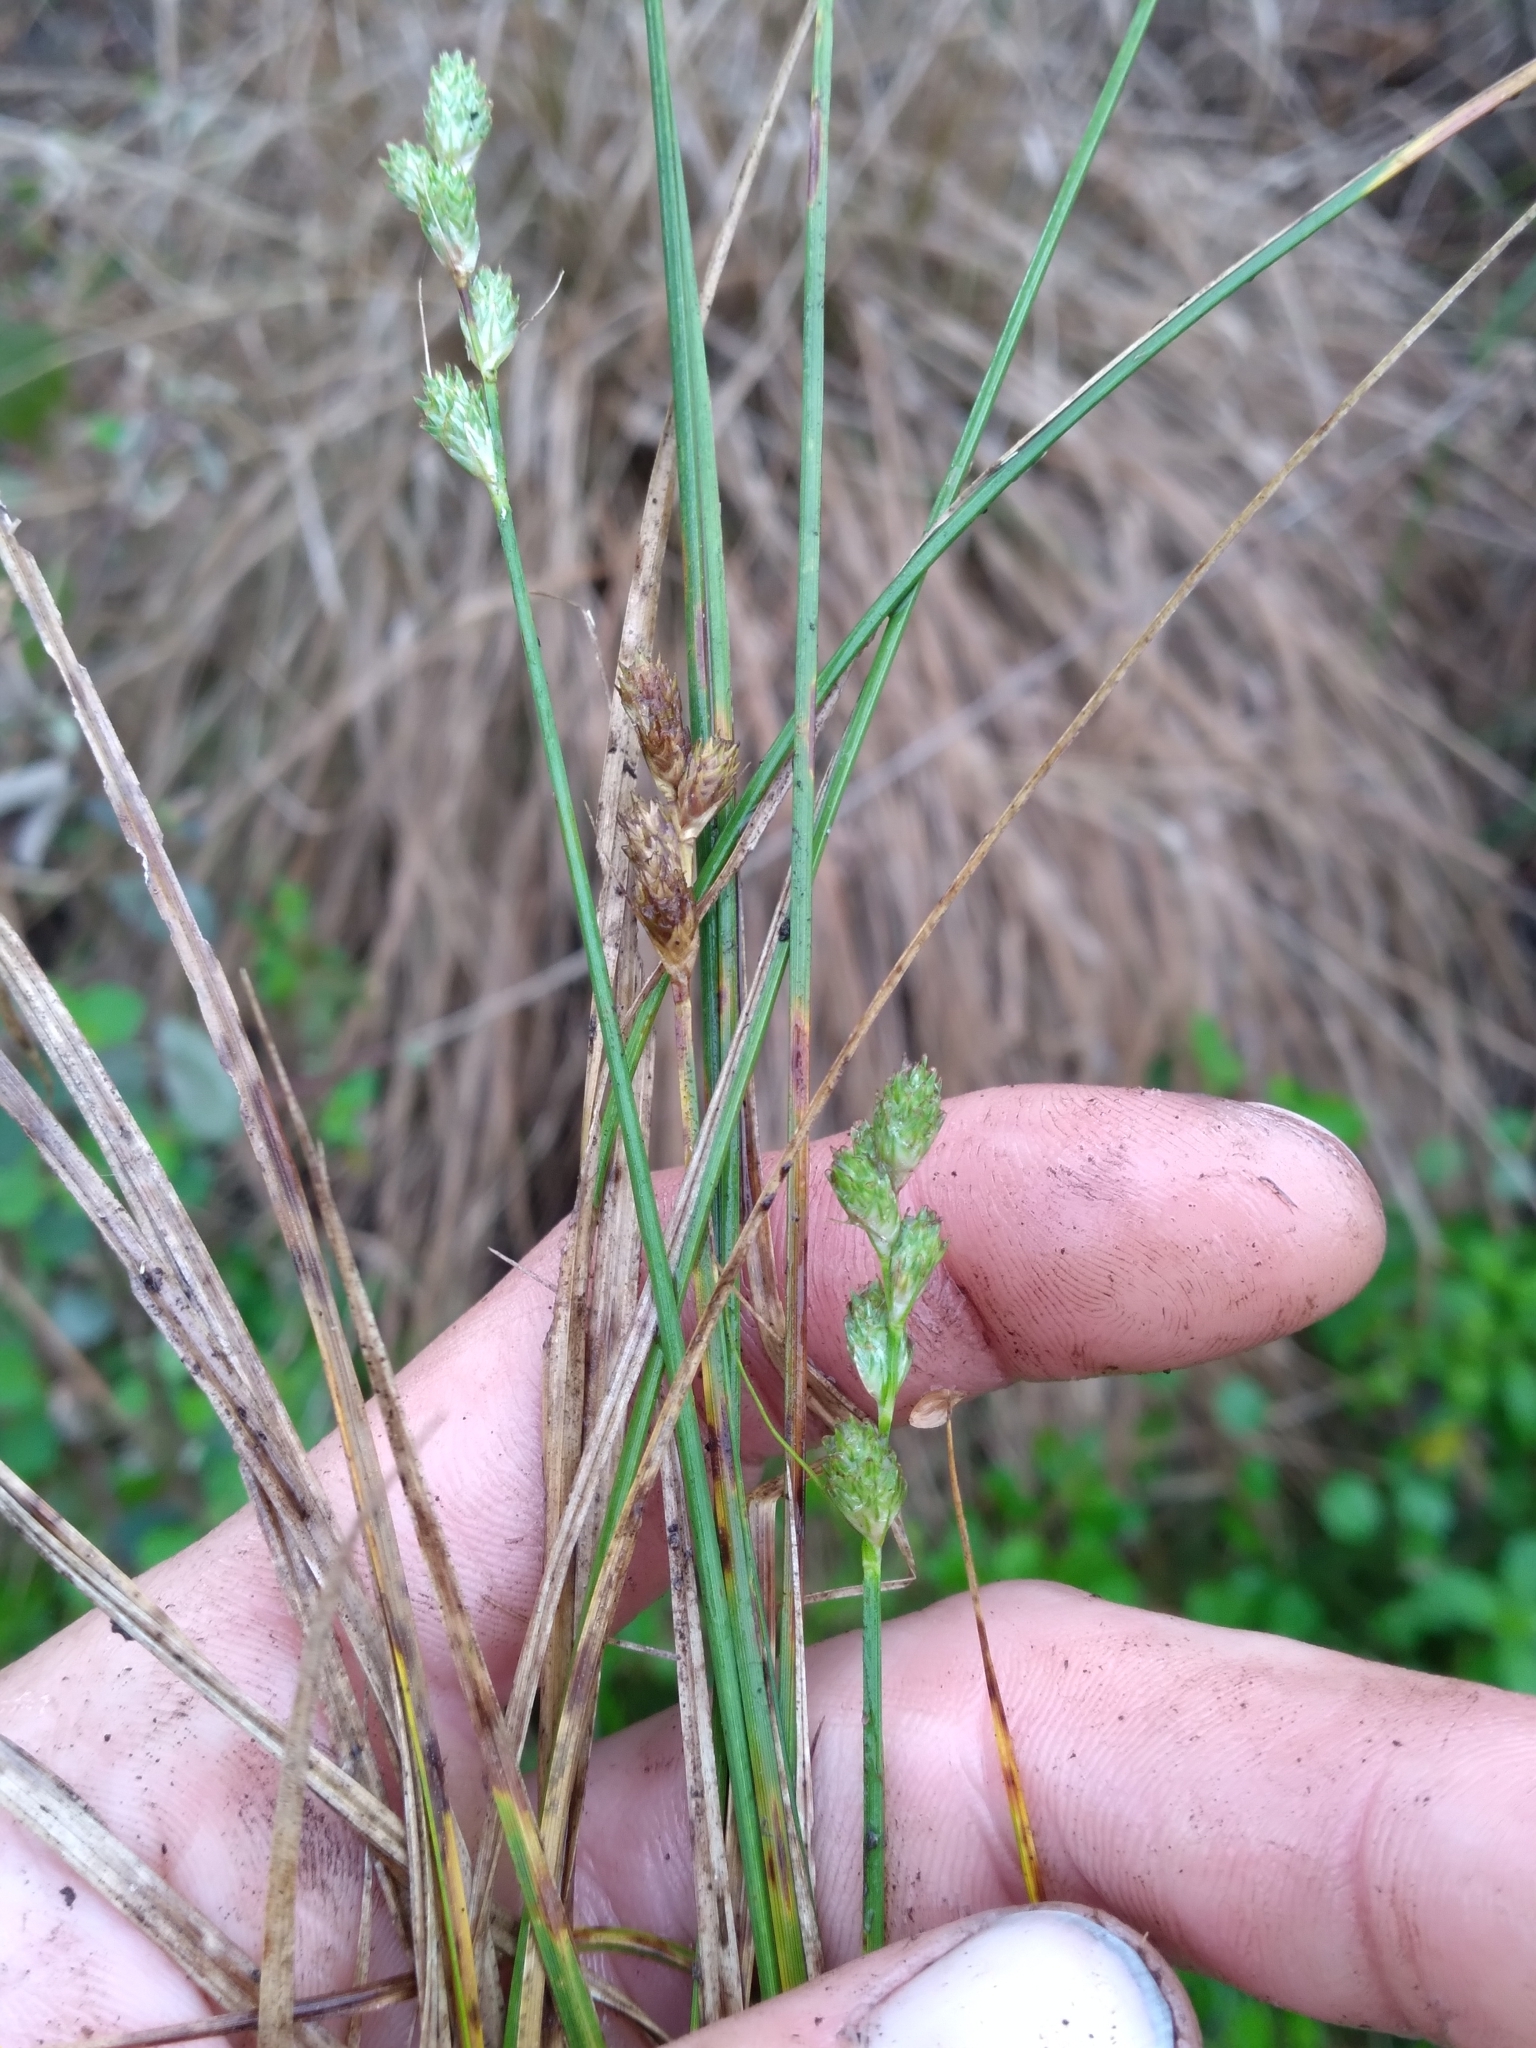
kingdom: Plantae
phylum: Tracheophyta
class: Liliopsida
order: Poales
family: Cyperaceae
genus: Carex
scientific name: Carex longii
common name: Long's sedge
